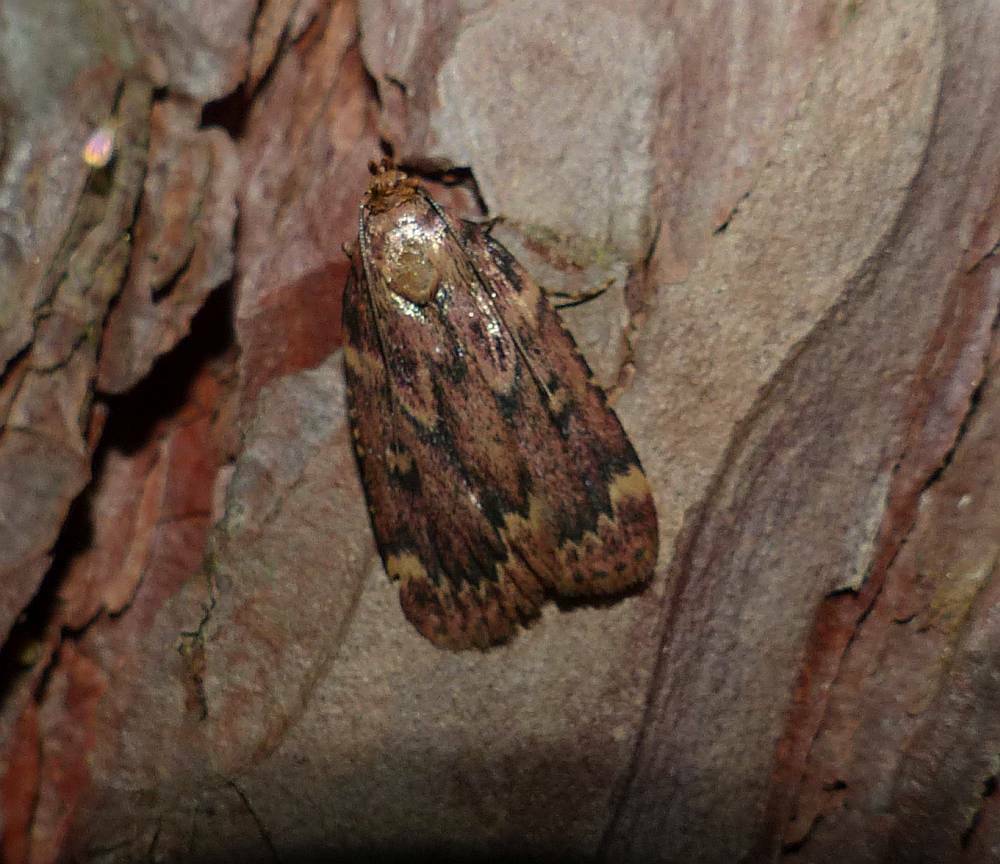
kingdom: Animalia
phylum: Arthropoda
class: Insecta
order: Lepidoptera
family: Pyralidae
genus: Aglossa
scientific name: Aglossa cuprina
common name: Grease moth
